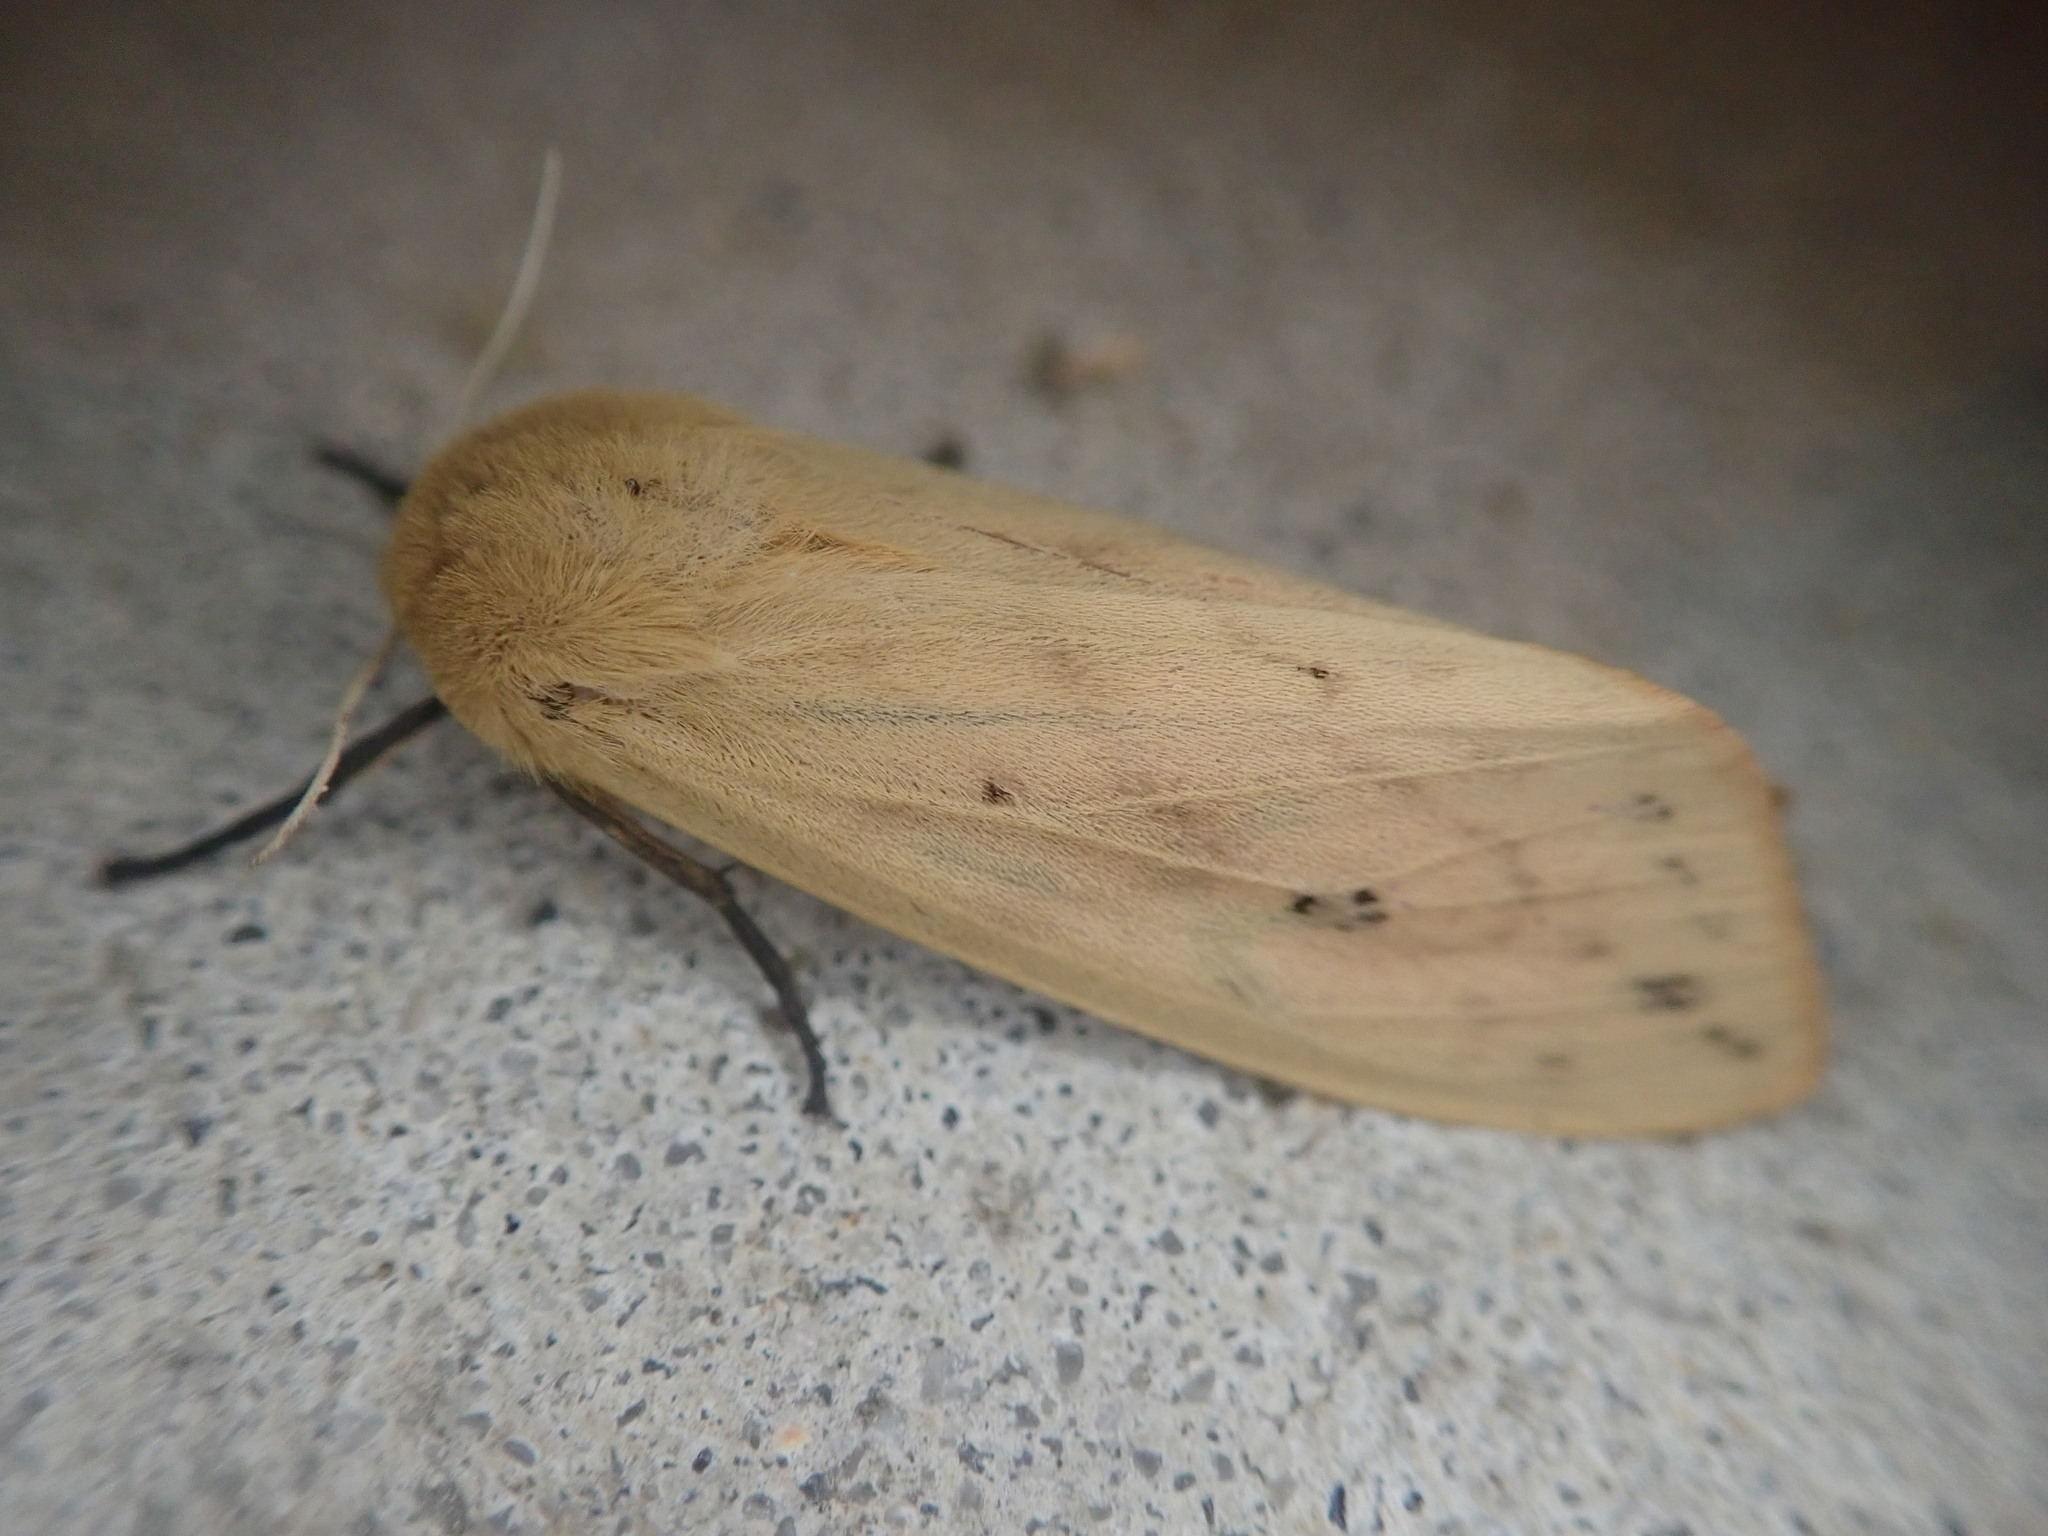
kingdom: Animalia
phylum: Arthropoda
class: Insecta
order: Lepidoptera
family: Erebidae
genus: Pyrrharctia
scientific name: Pyrrharctia isabella
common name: Isabella tiger moth
